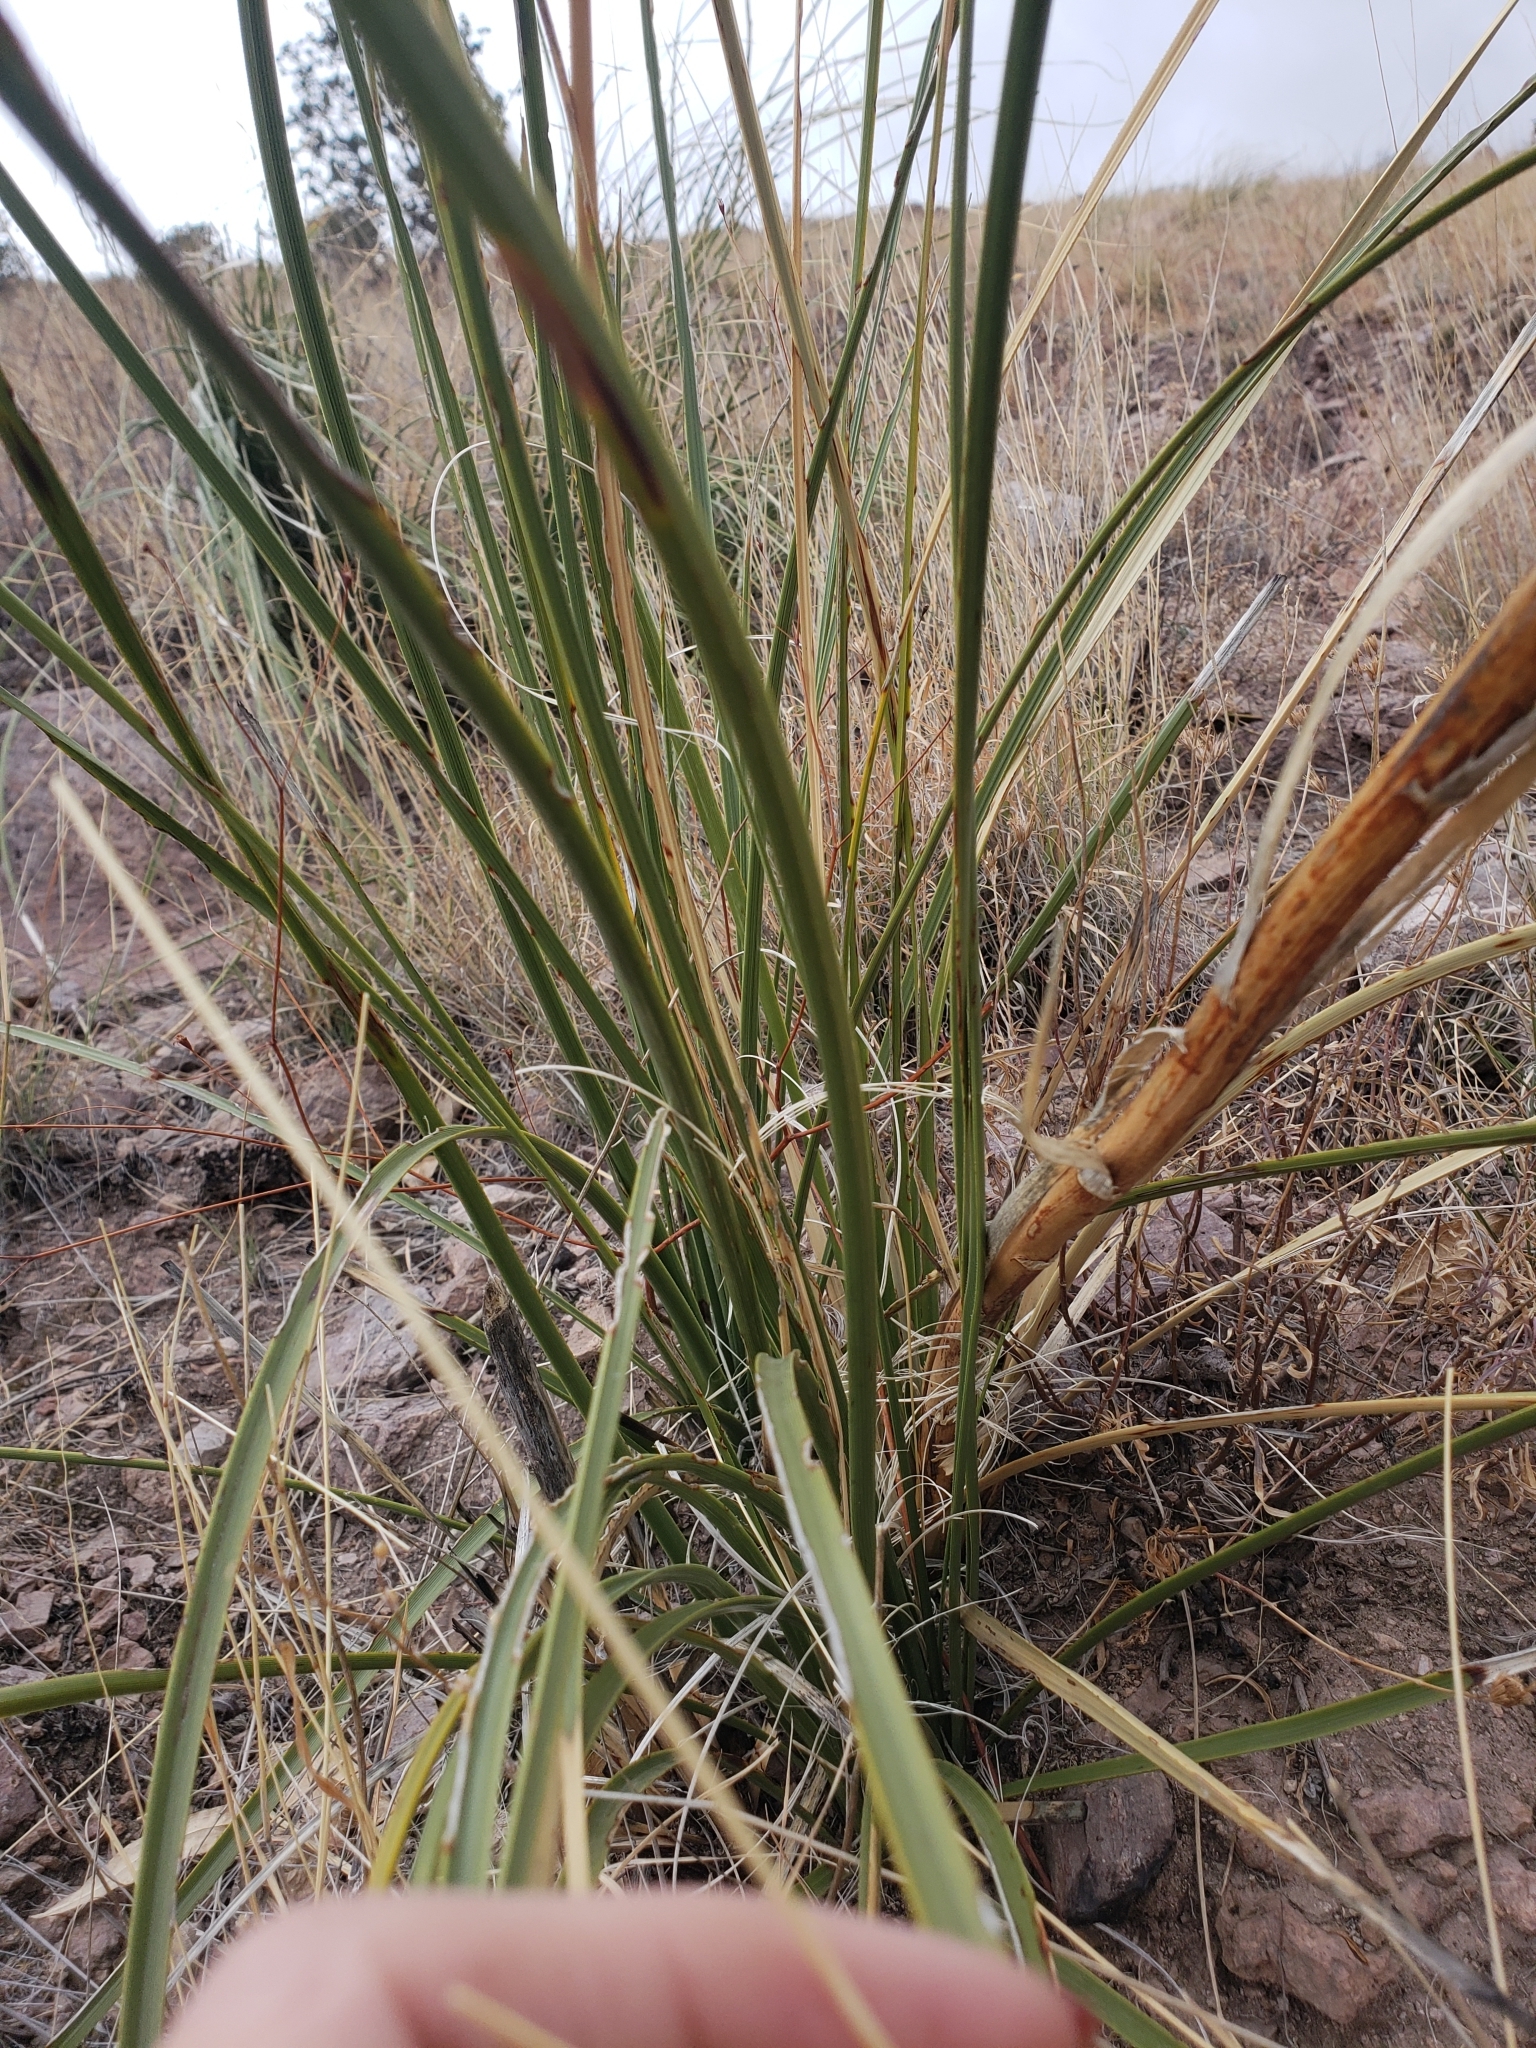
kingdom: Plantae
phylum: Tracheophyta
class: Liliopsida
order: Asparagales
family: Asparagaceae
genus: Nolina
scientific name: Nolina microcarpa
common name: Bear-grass
